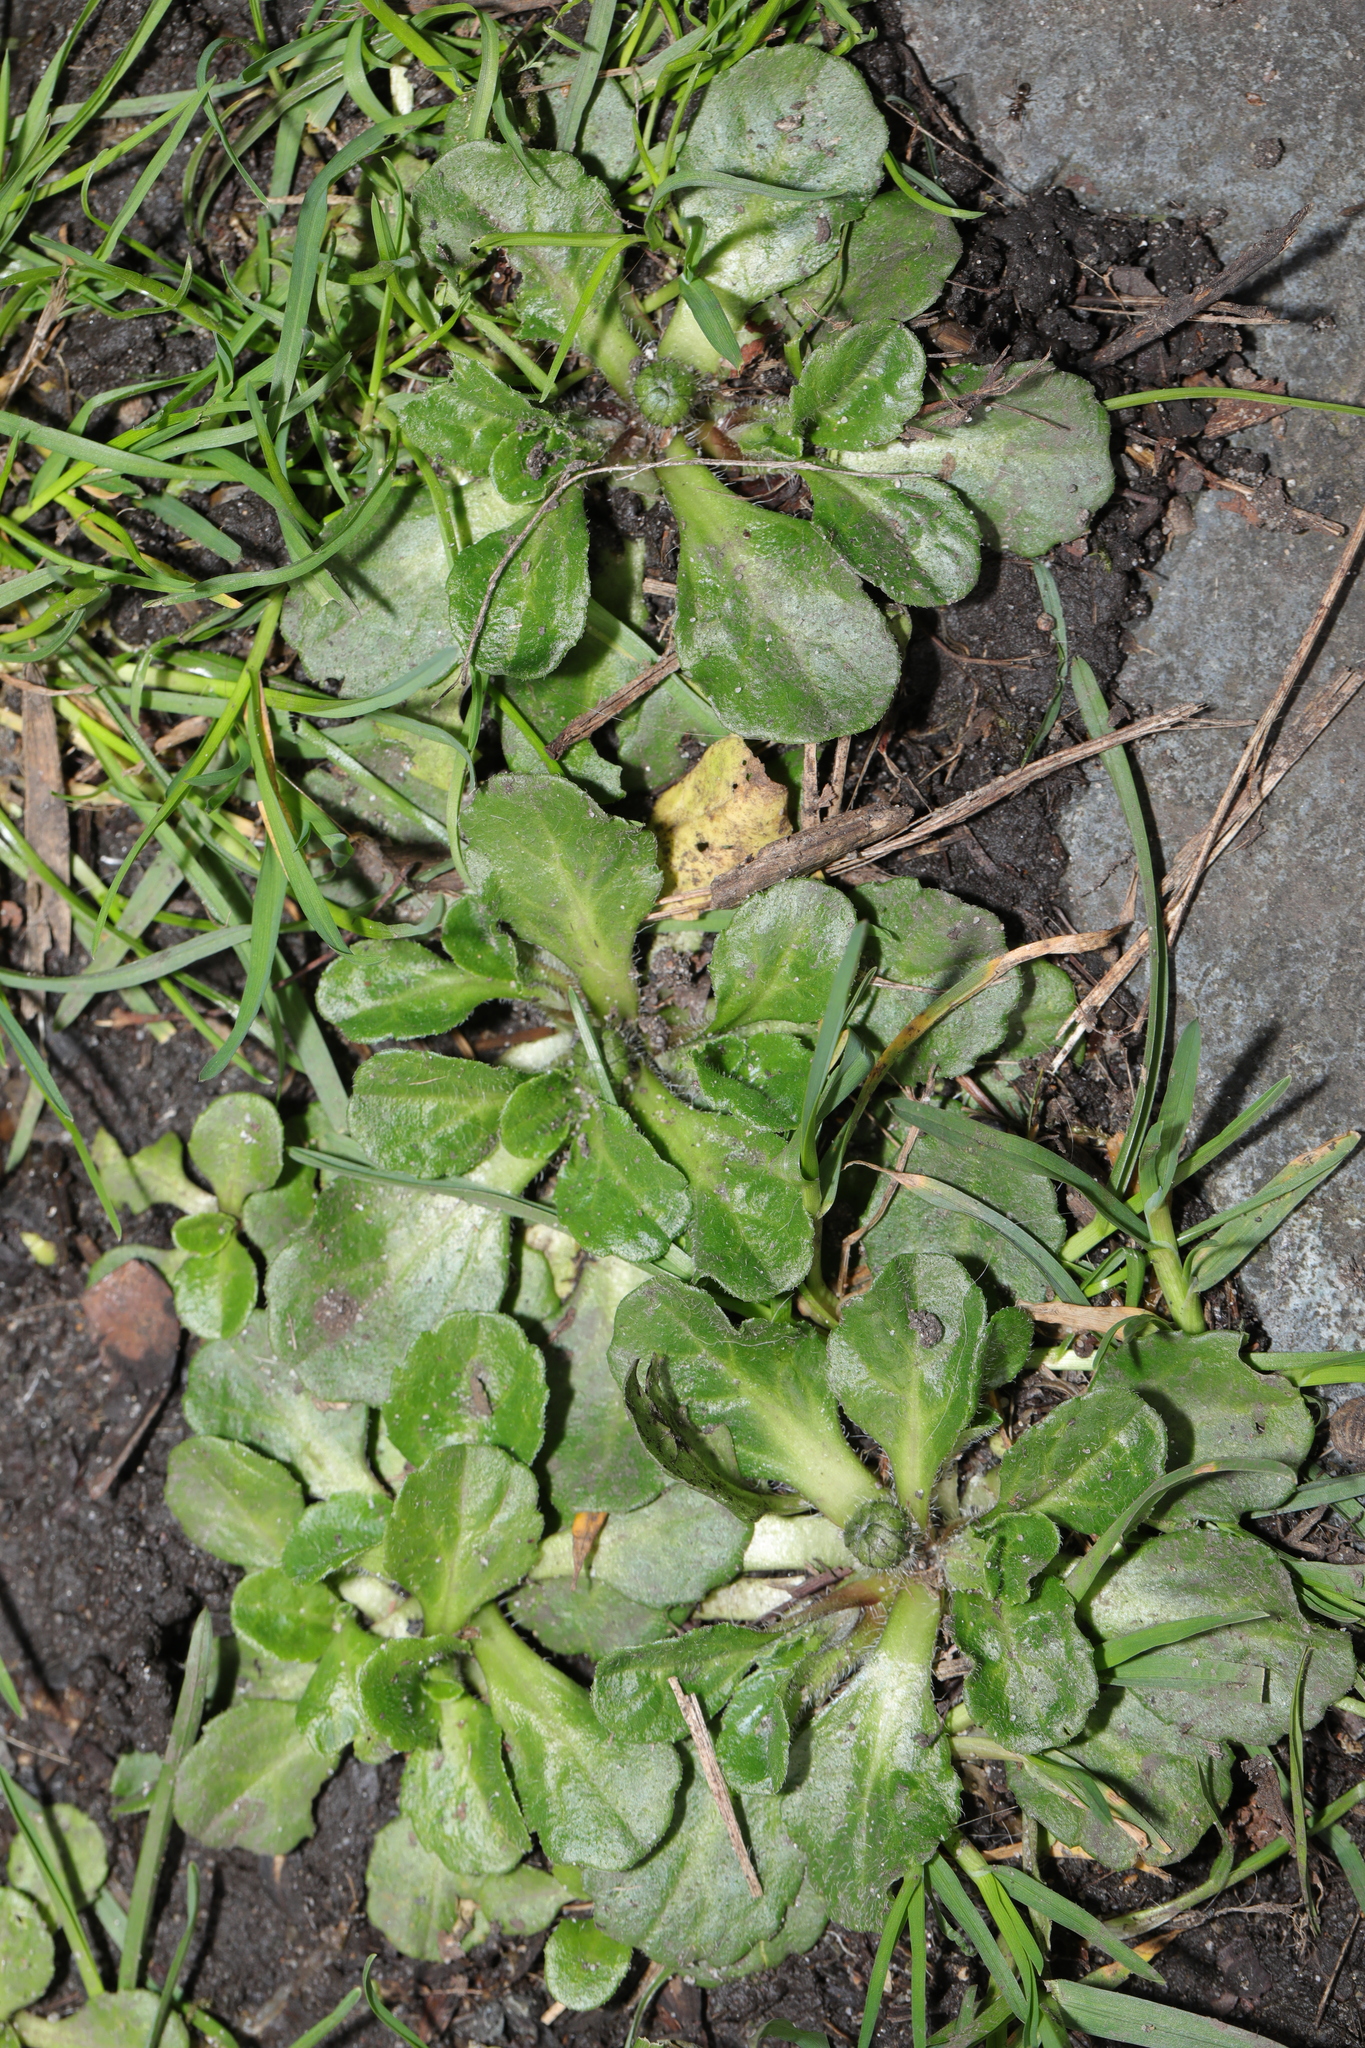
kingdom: Plantae
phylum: Tracheophyta
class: Magnoliopsida
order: Asterales
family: Asteraceae
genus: Bellis
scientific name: Bellis perennis
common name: Lawndaisy
